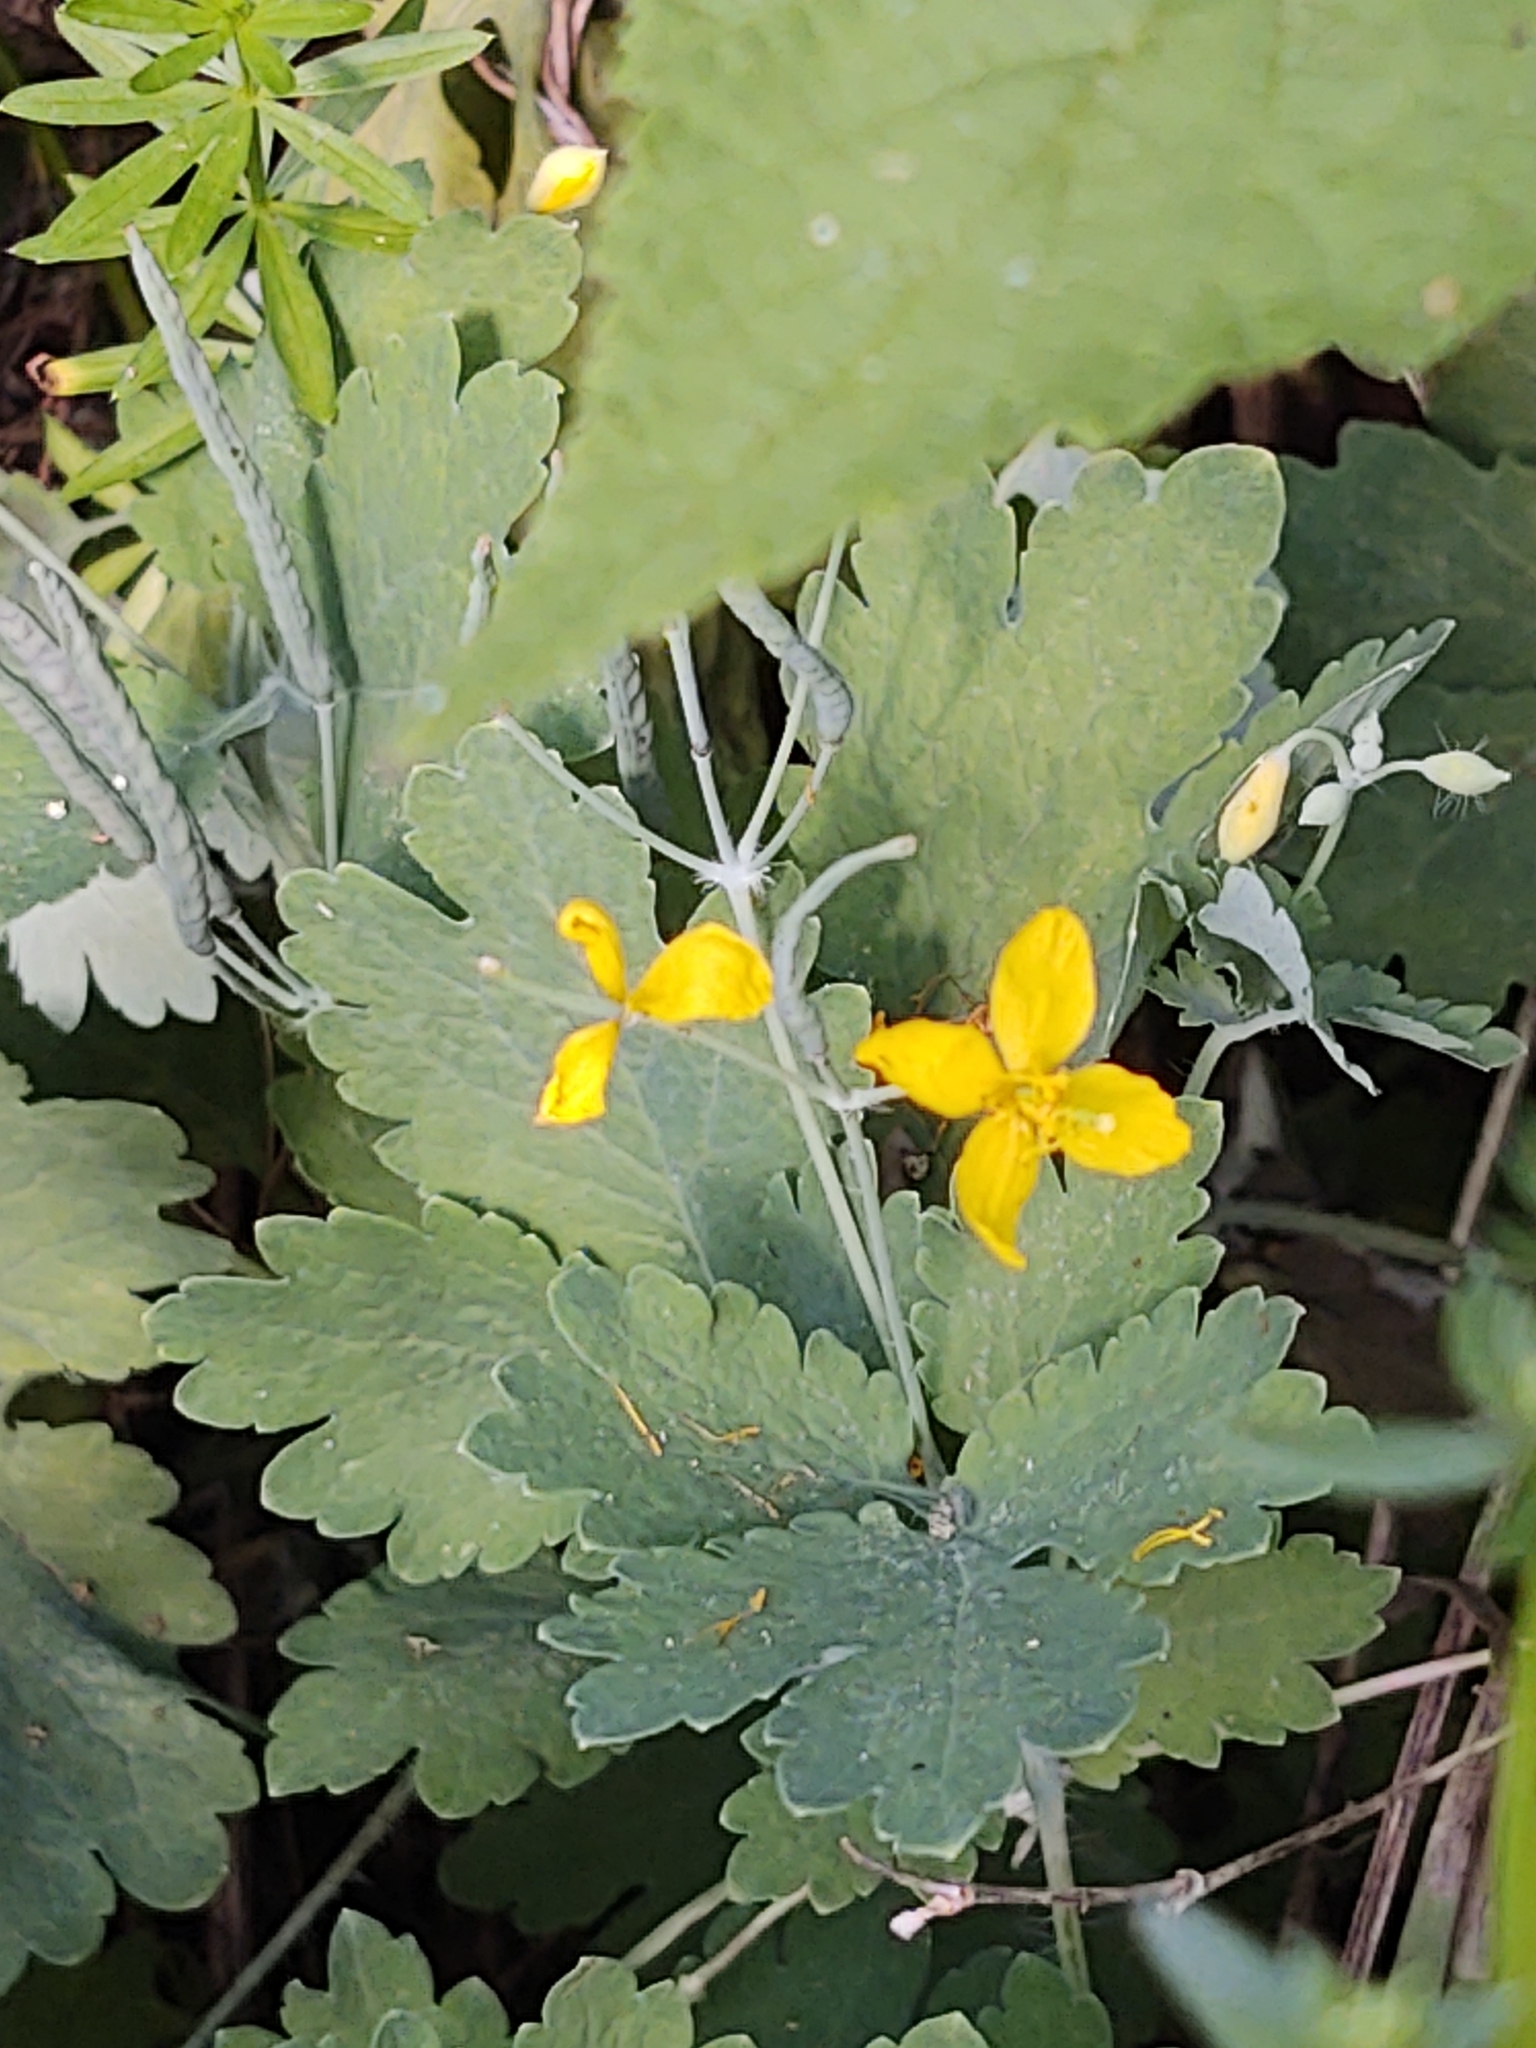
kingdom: Plantae
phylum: Tracheophyta
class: Magnoliopsida
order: Ranunculales
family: Papaveraceae
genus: Chelidonium
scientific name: Chelidonium majus
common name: Greater celandine
